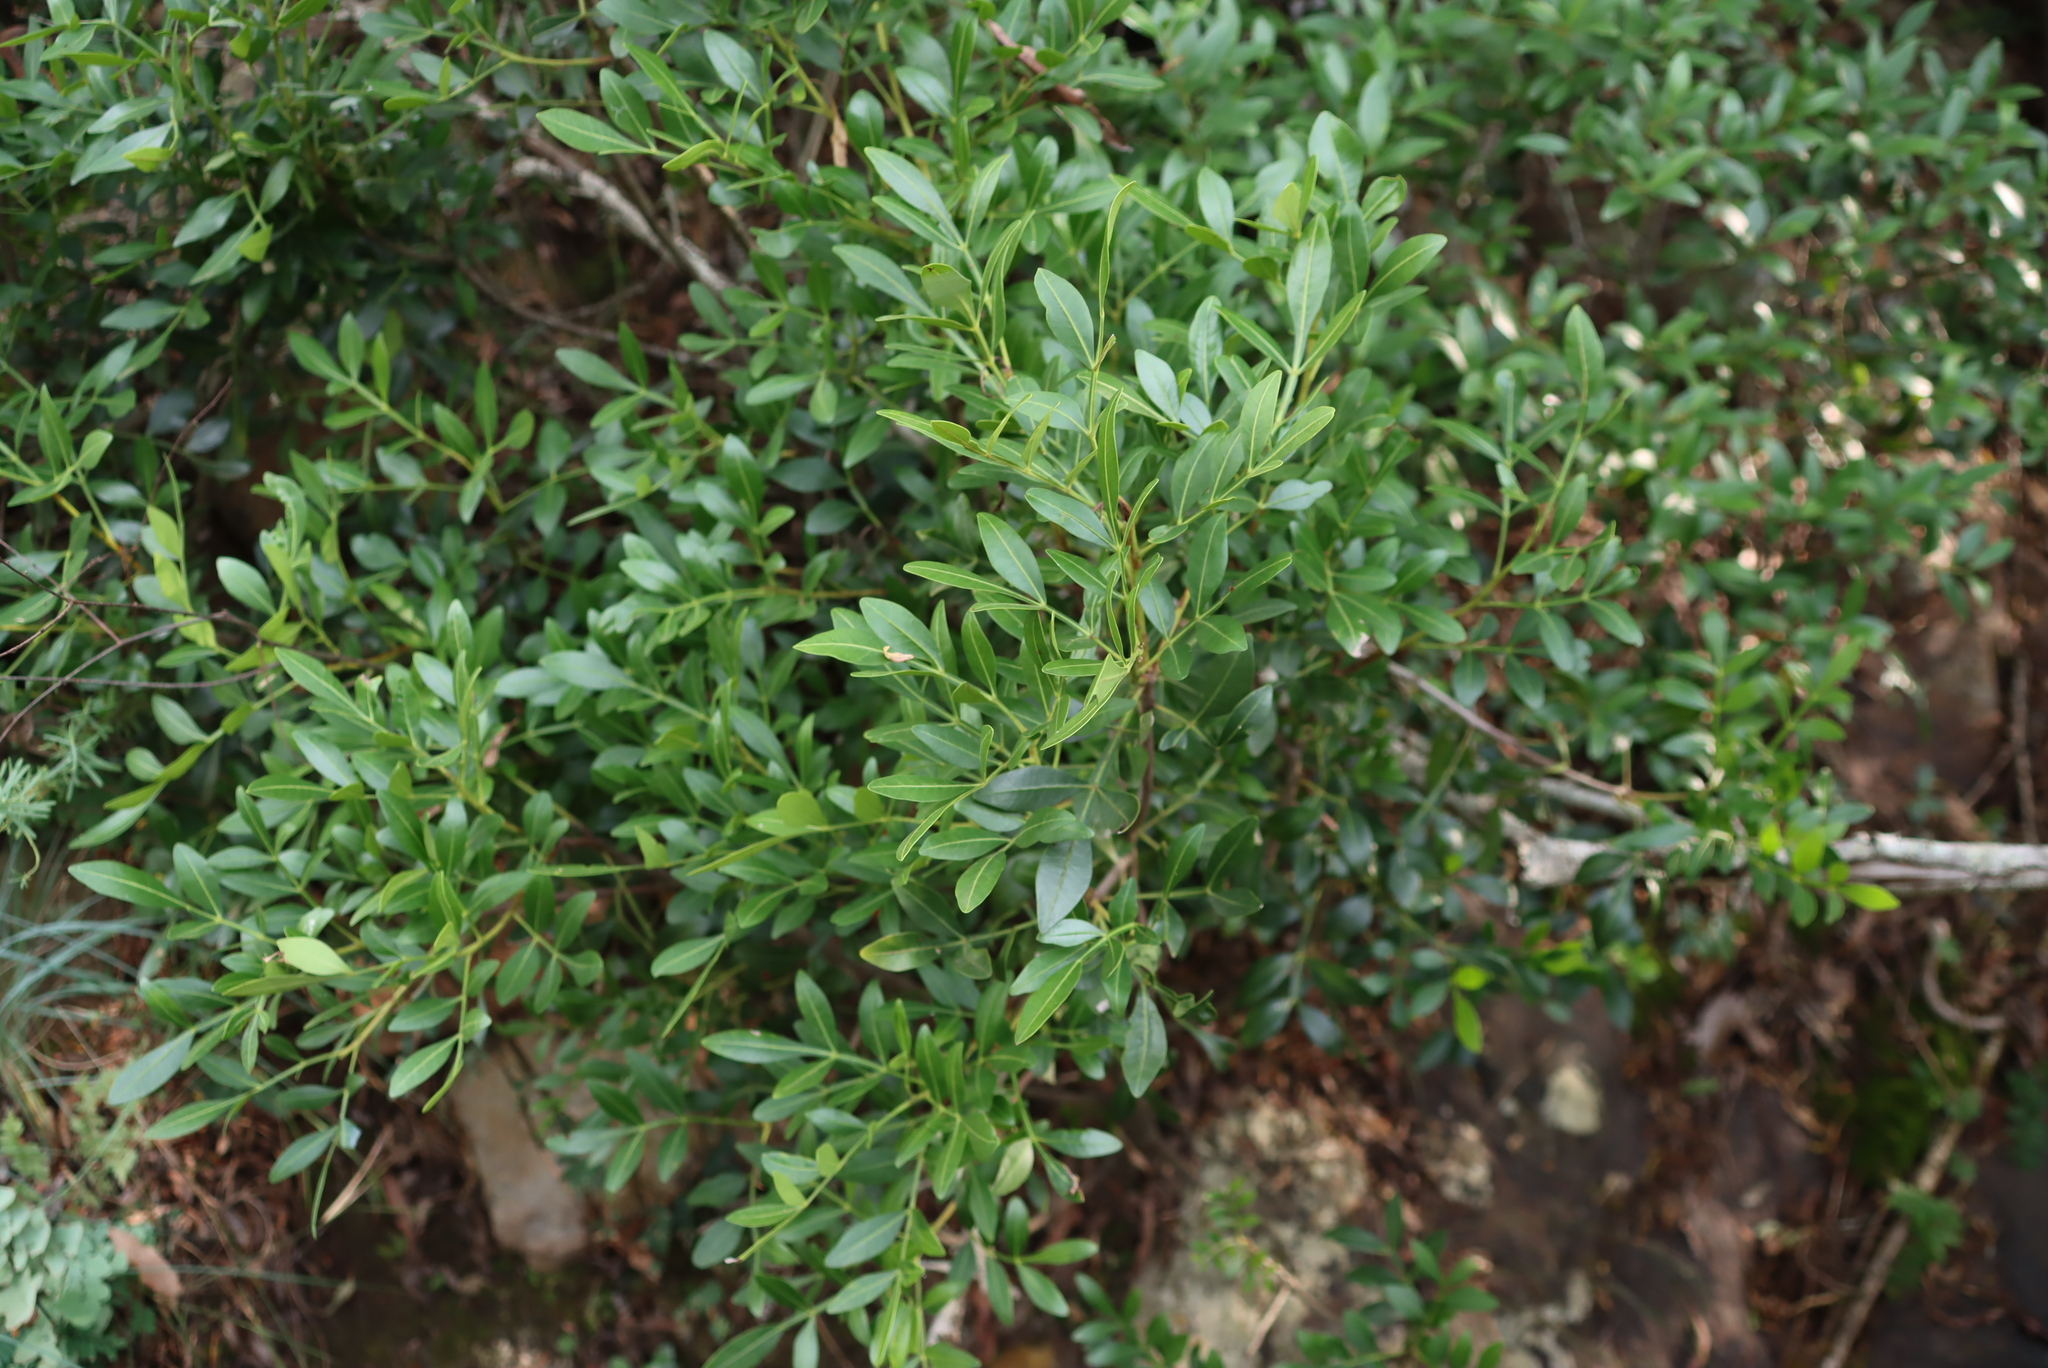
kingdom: Plantae
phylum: Tracheophyta
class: Magnoliopsida
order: Sapindales
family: Meliaceae
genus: Ekebergia
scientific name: Ekebergia pterophylla
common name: Cape ash
